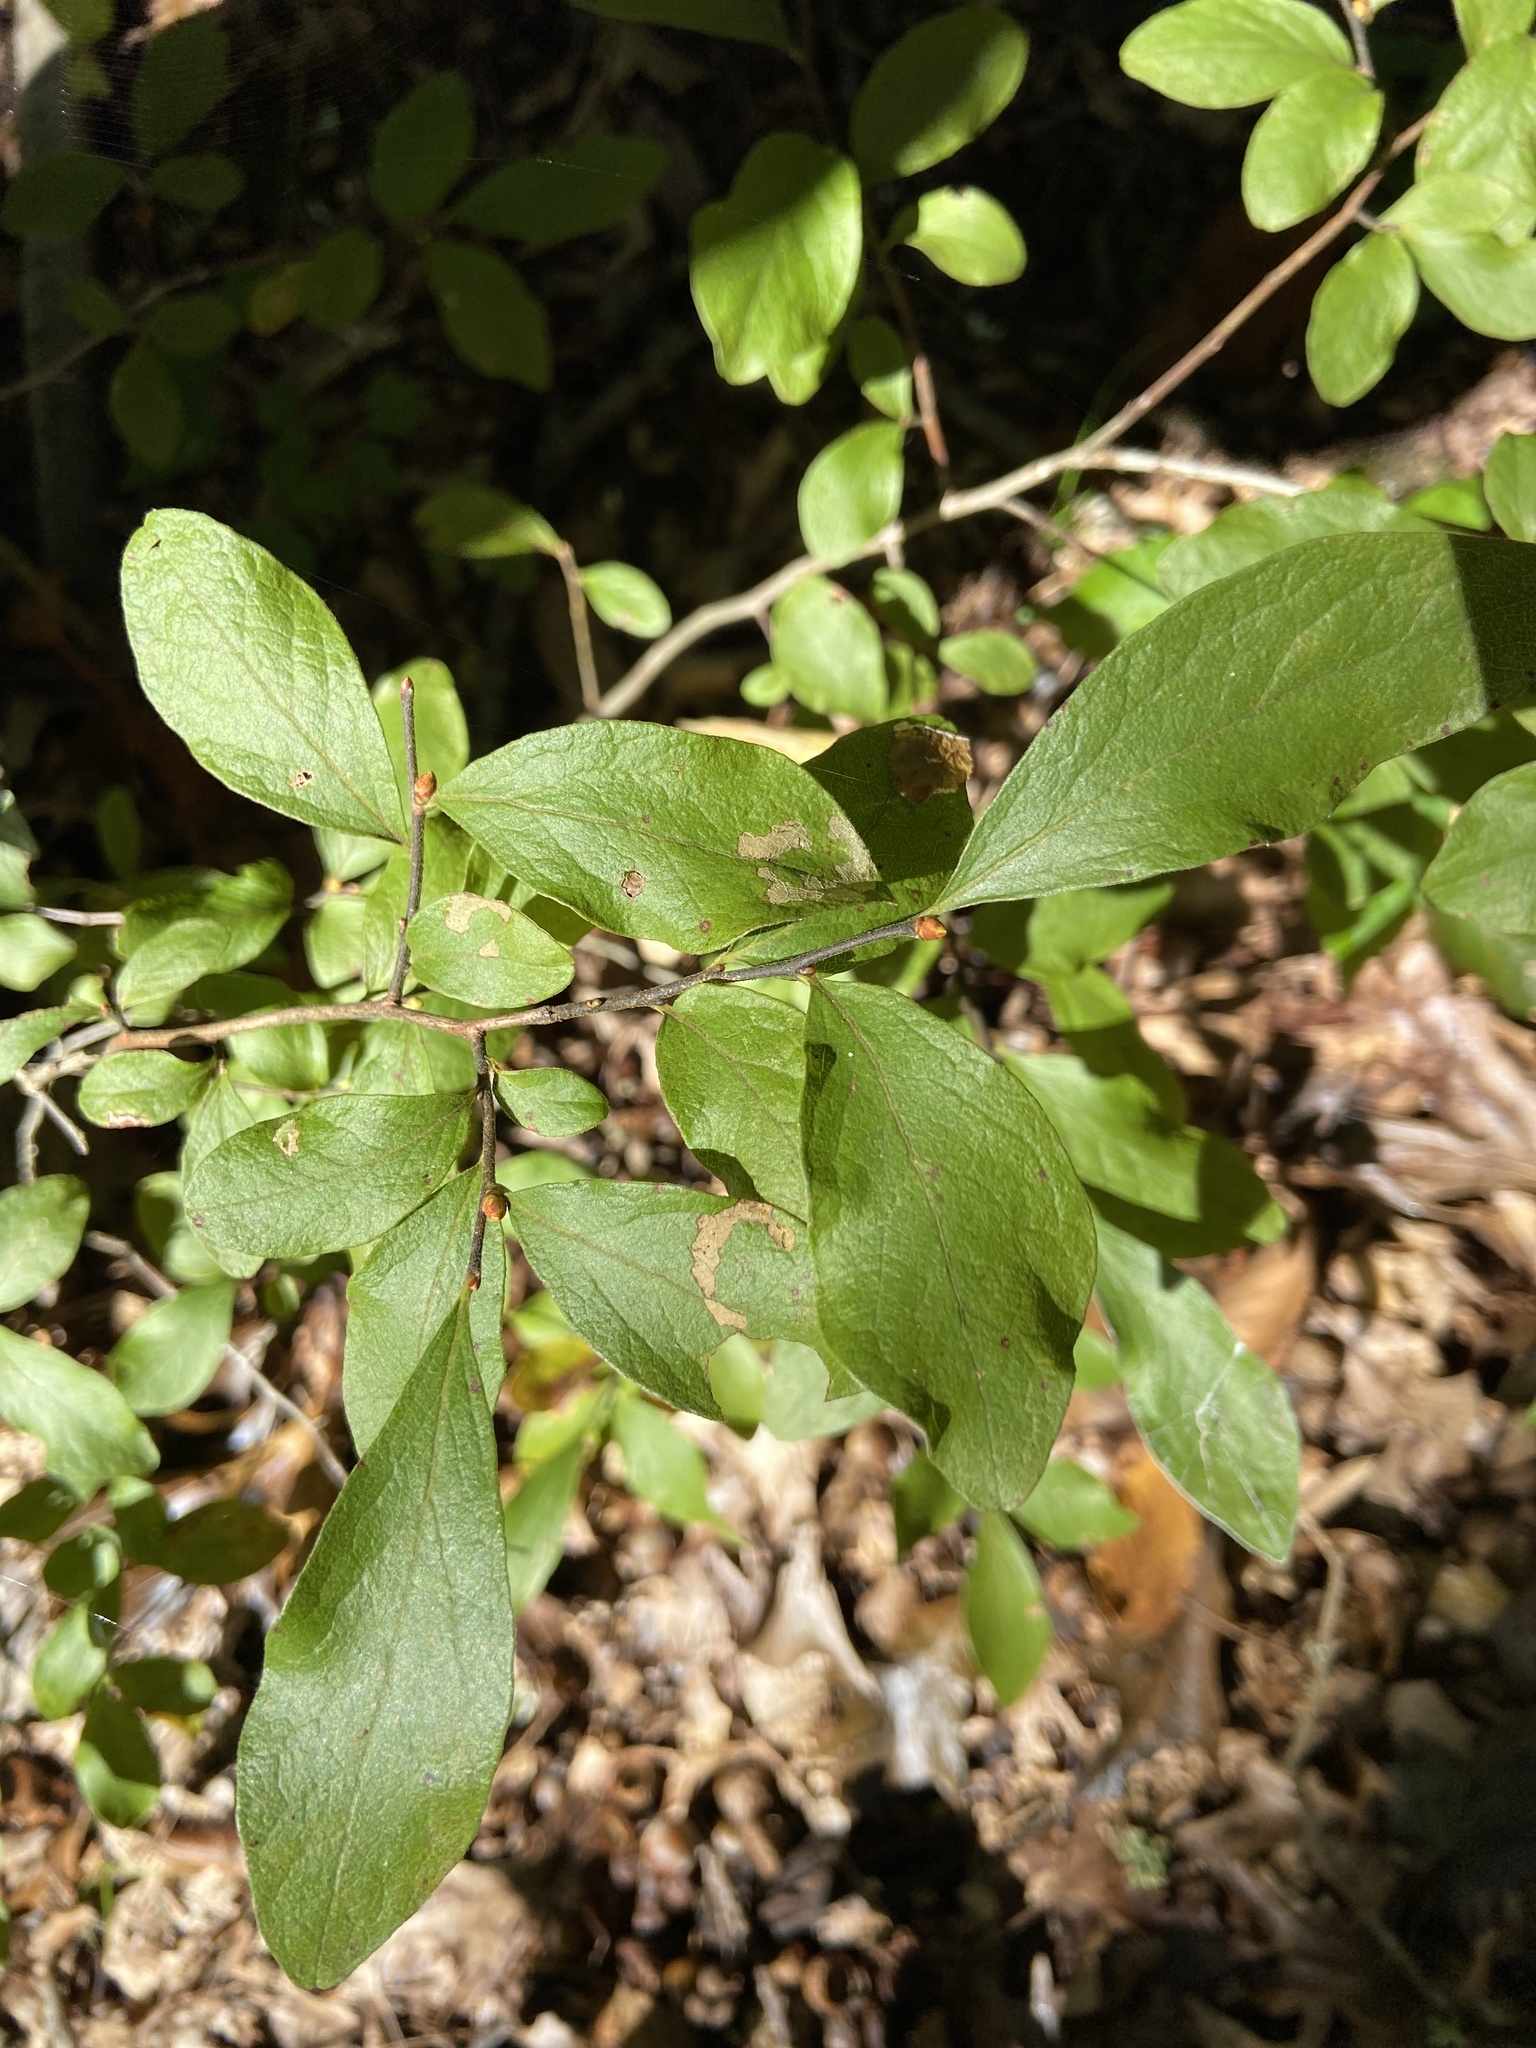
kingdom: Plantae
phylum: Tracheophyta
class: Magnoliopsida
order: Ericales
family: Ericaceae
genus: Gaylussacia
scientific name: Gaylussacia baccata
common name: Black huckleberry
